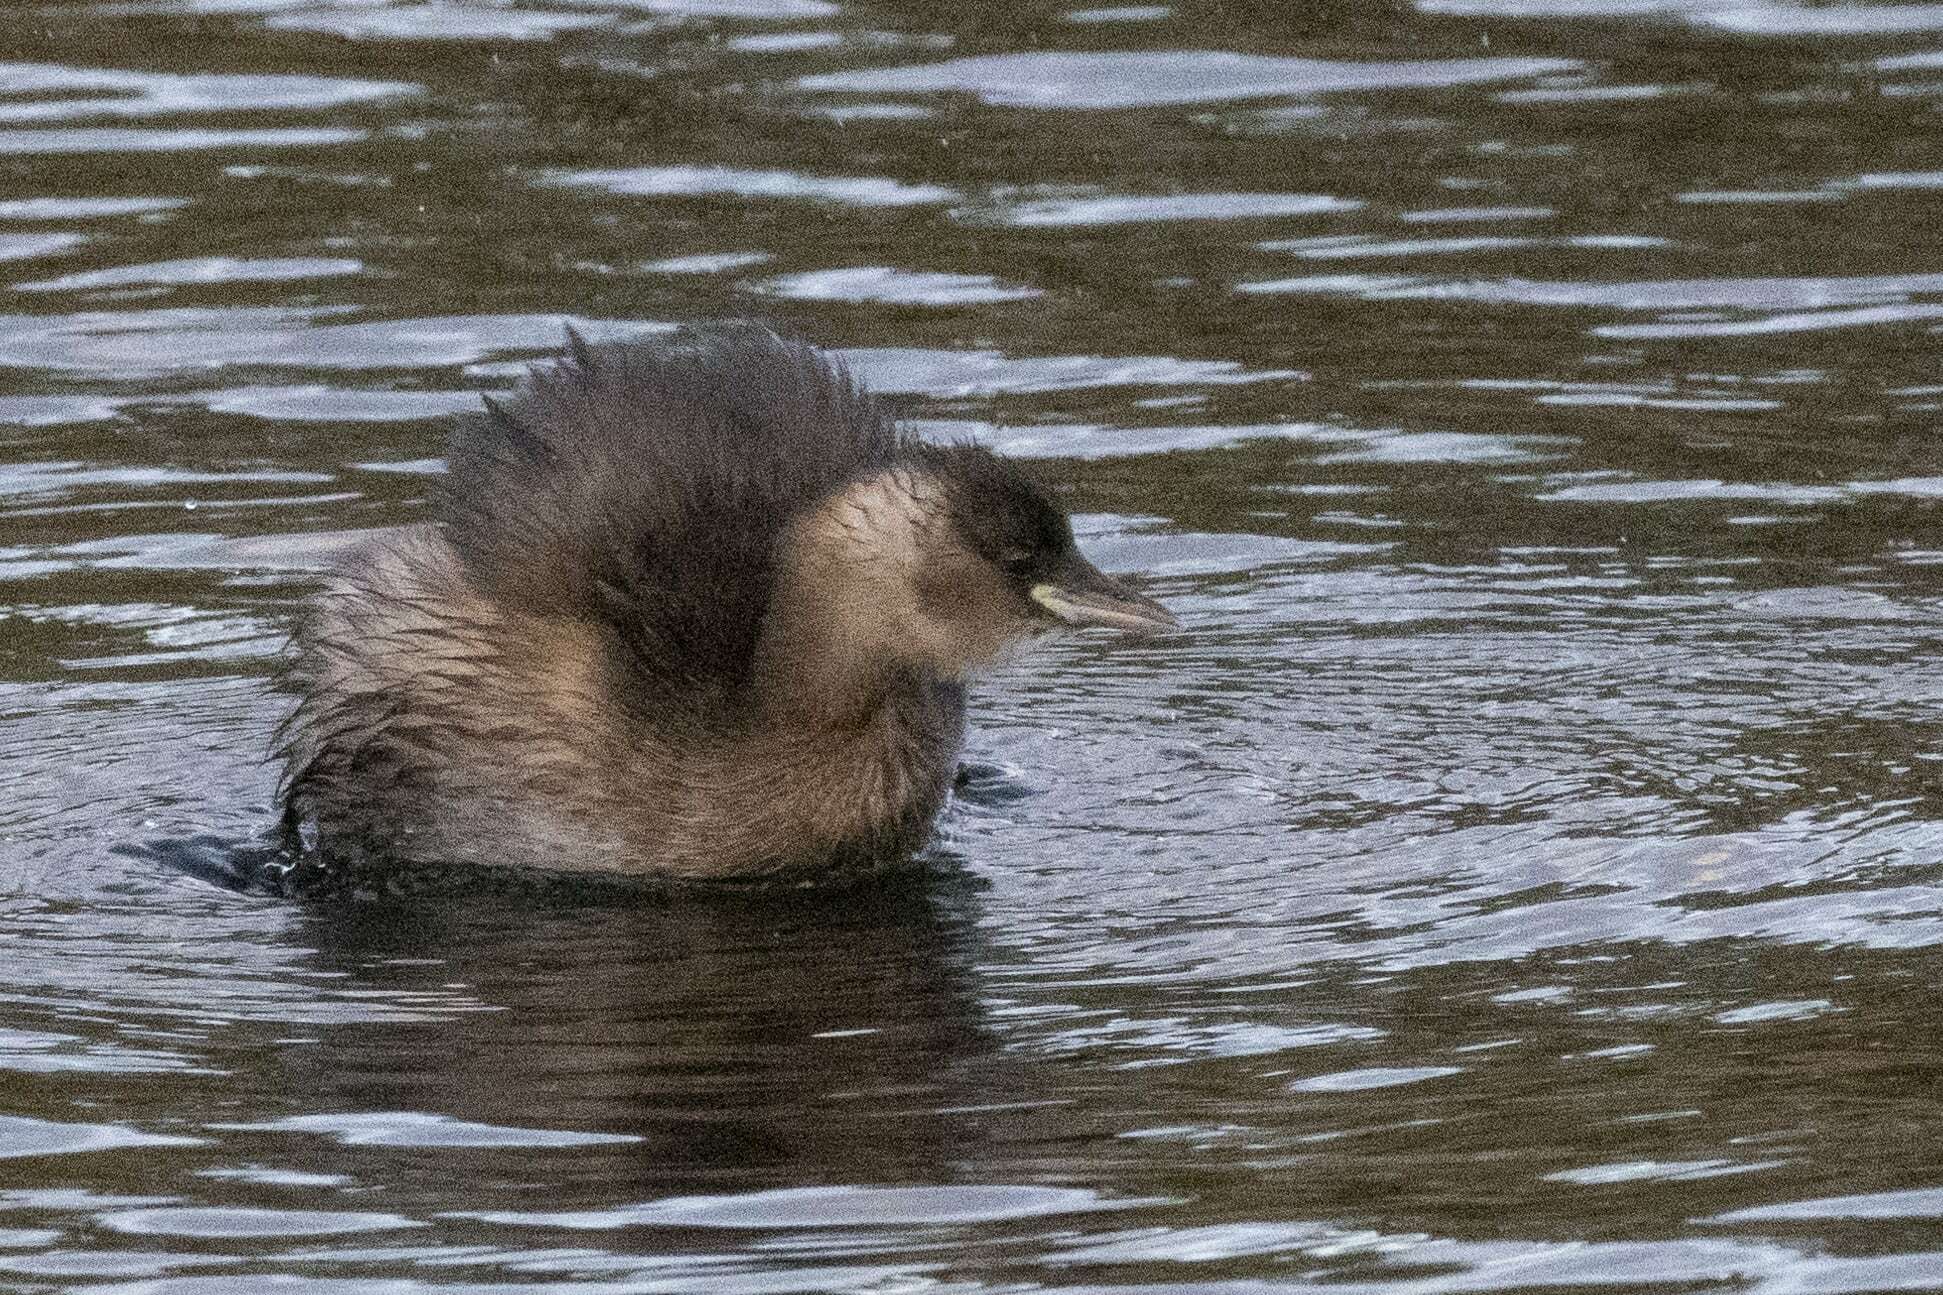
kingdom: Animalia
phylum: Chordata
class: Aves
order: Podicipediformes
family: Podicipedidae
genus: Tachybaptus
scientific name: Tachybaptus ruficollis
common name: Little grebe
